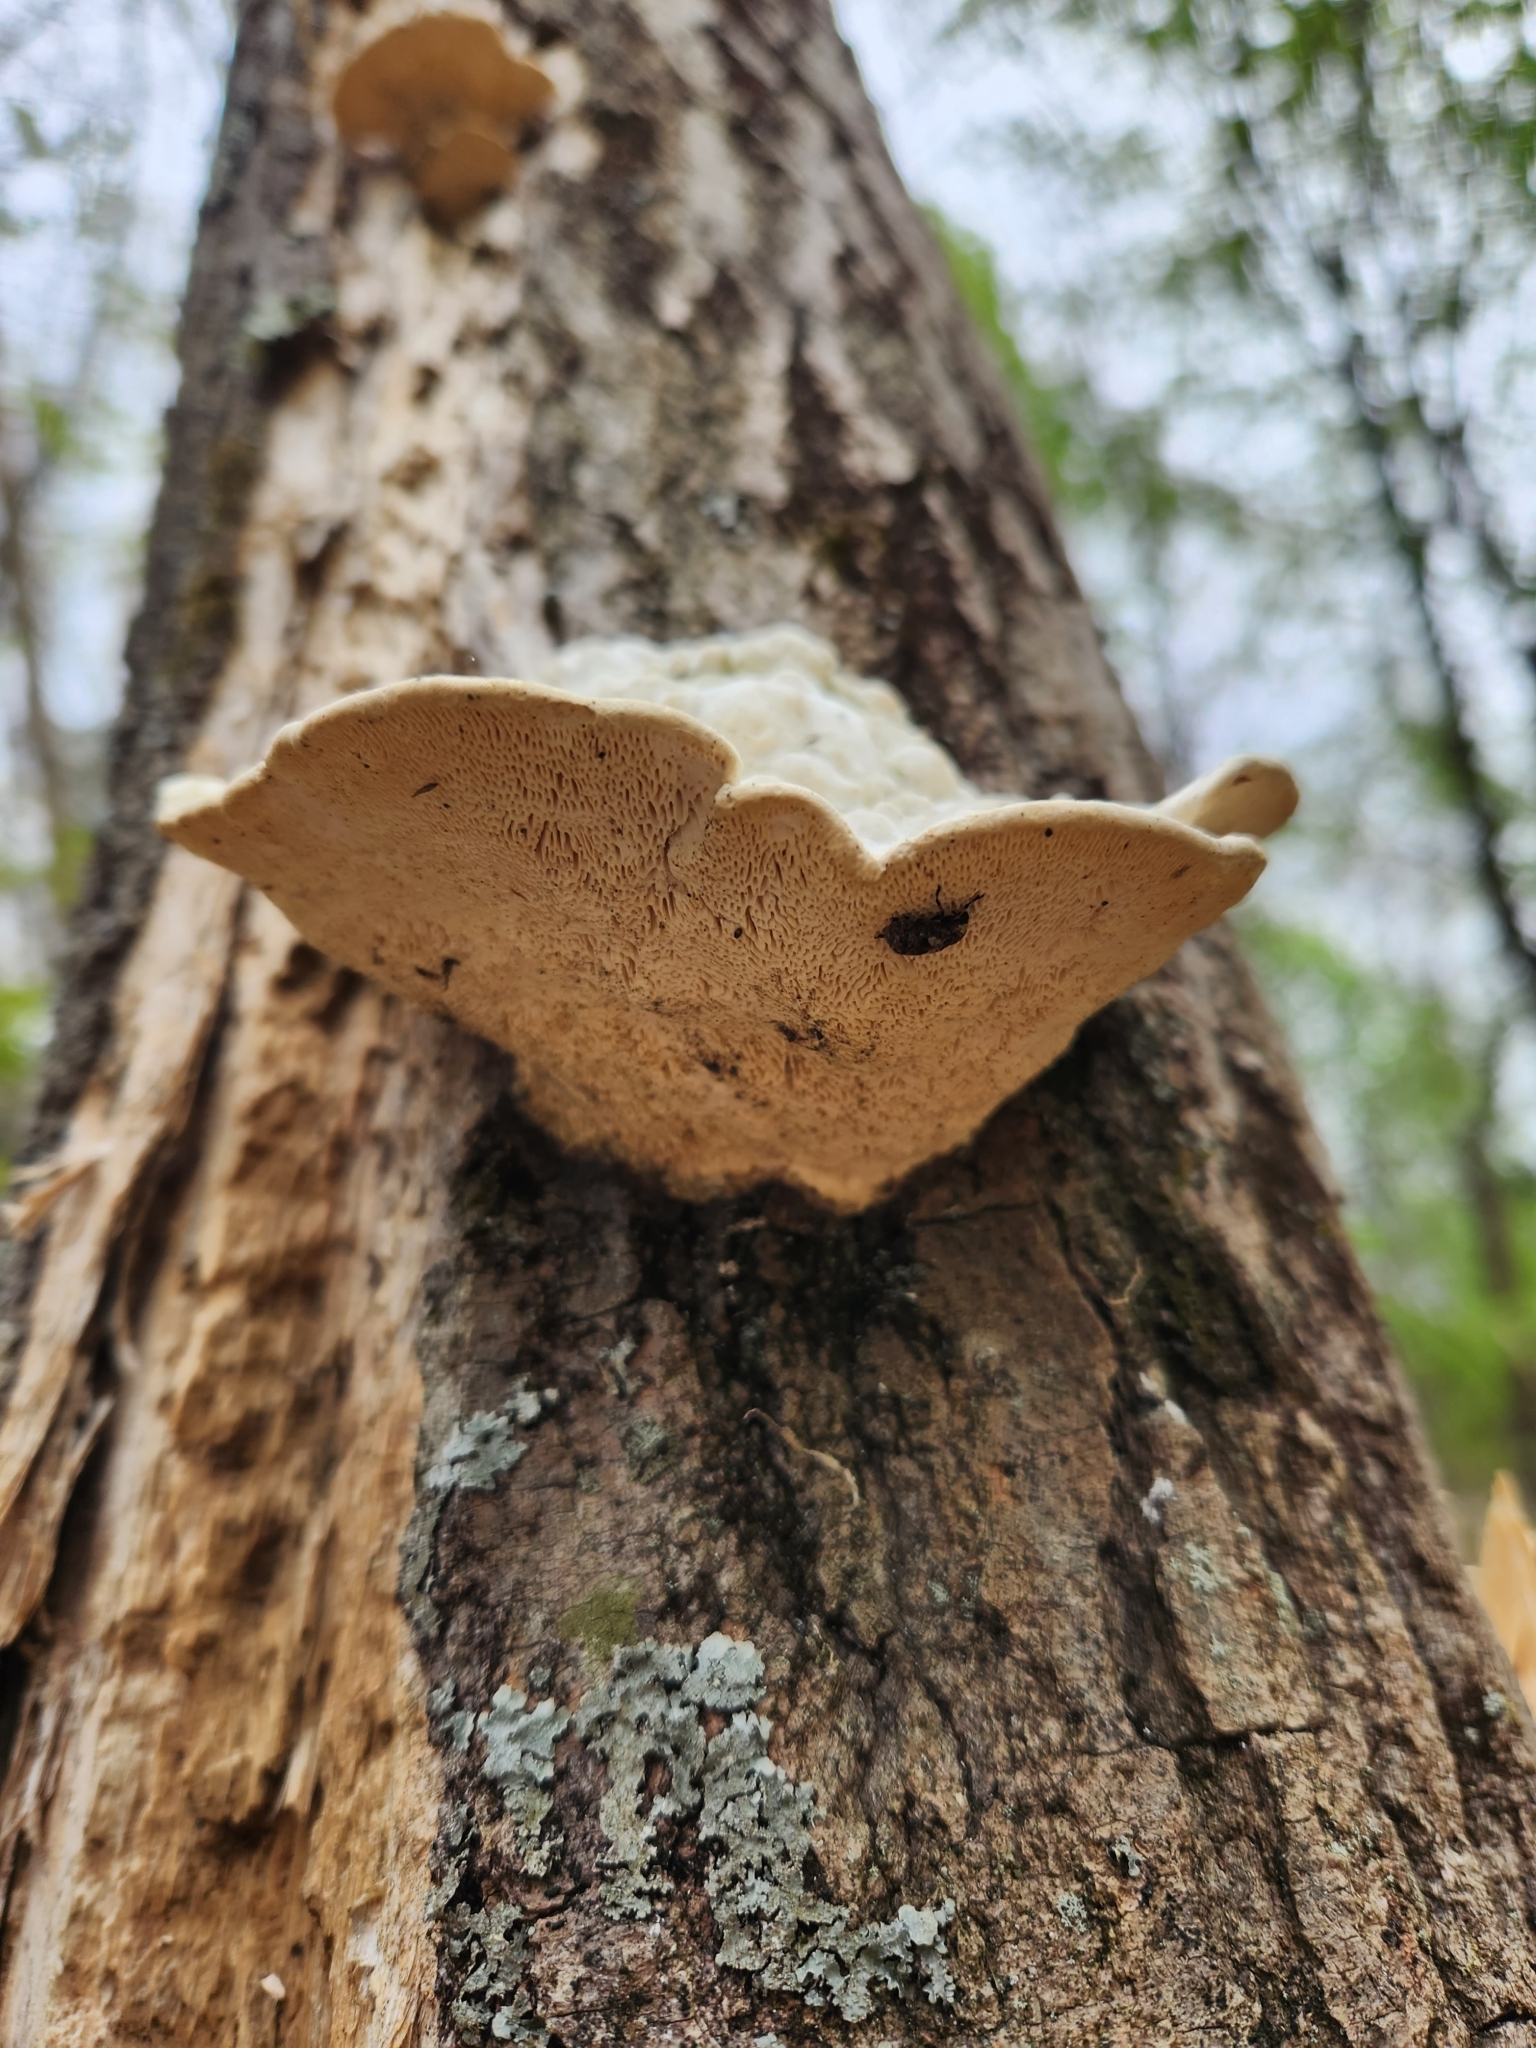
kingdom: Fungi
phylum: Basidiomycota
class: Agaricomycetes
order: Polyporales
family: Polyporaceae
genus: Trametes
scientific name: Trametes gibbosa
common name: Lumpy bracket
